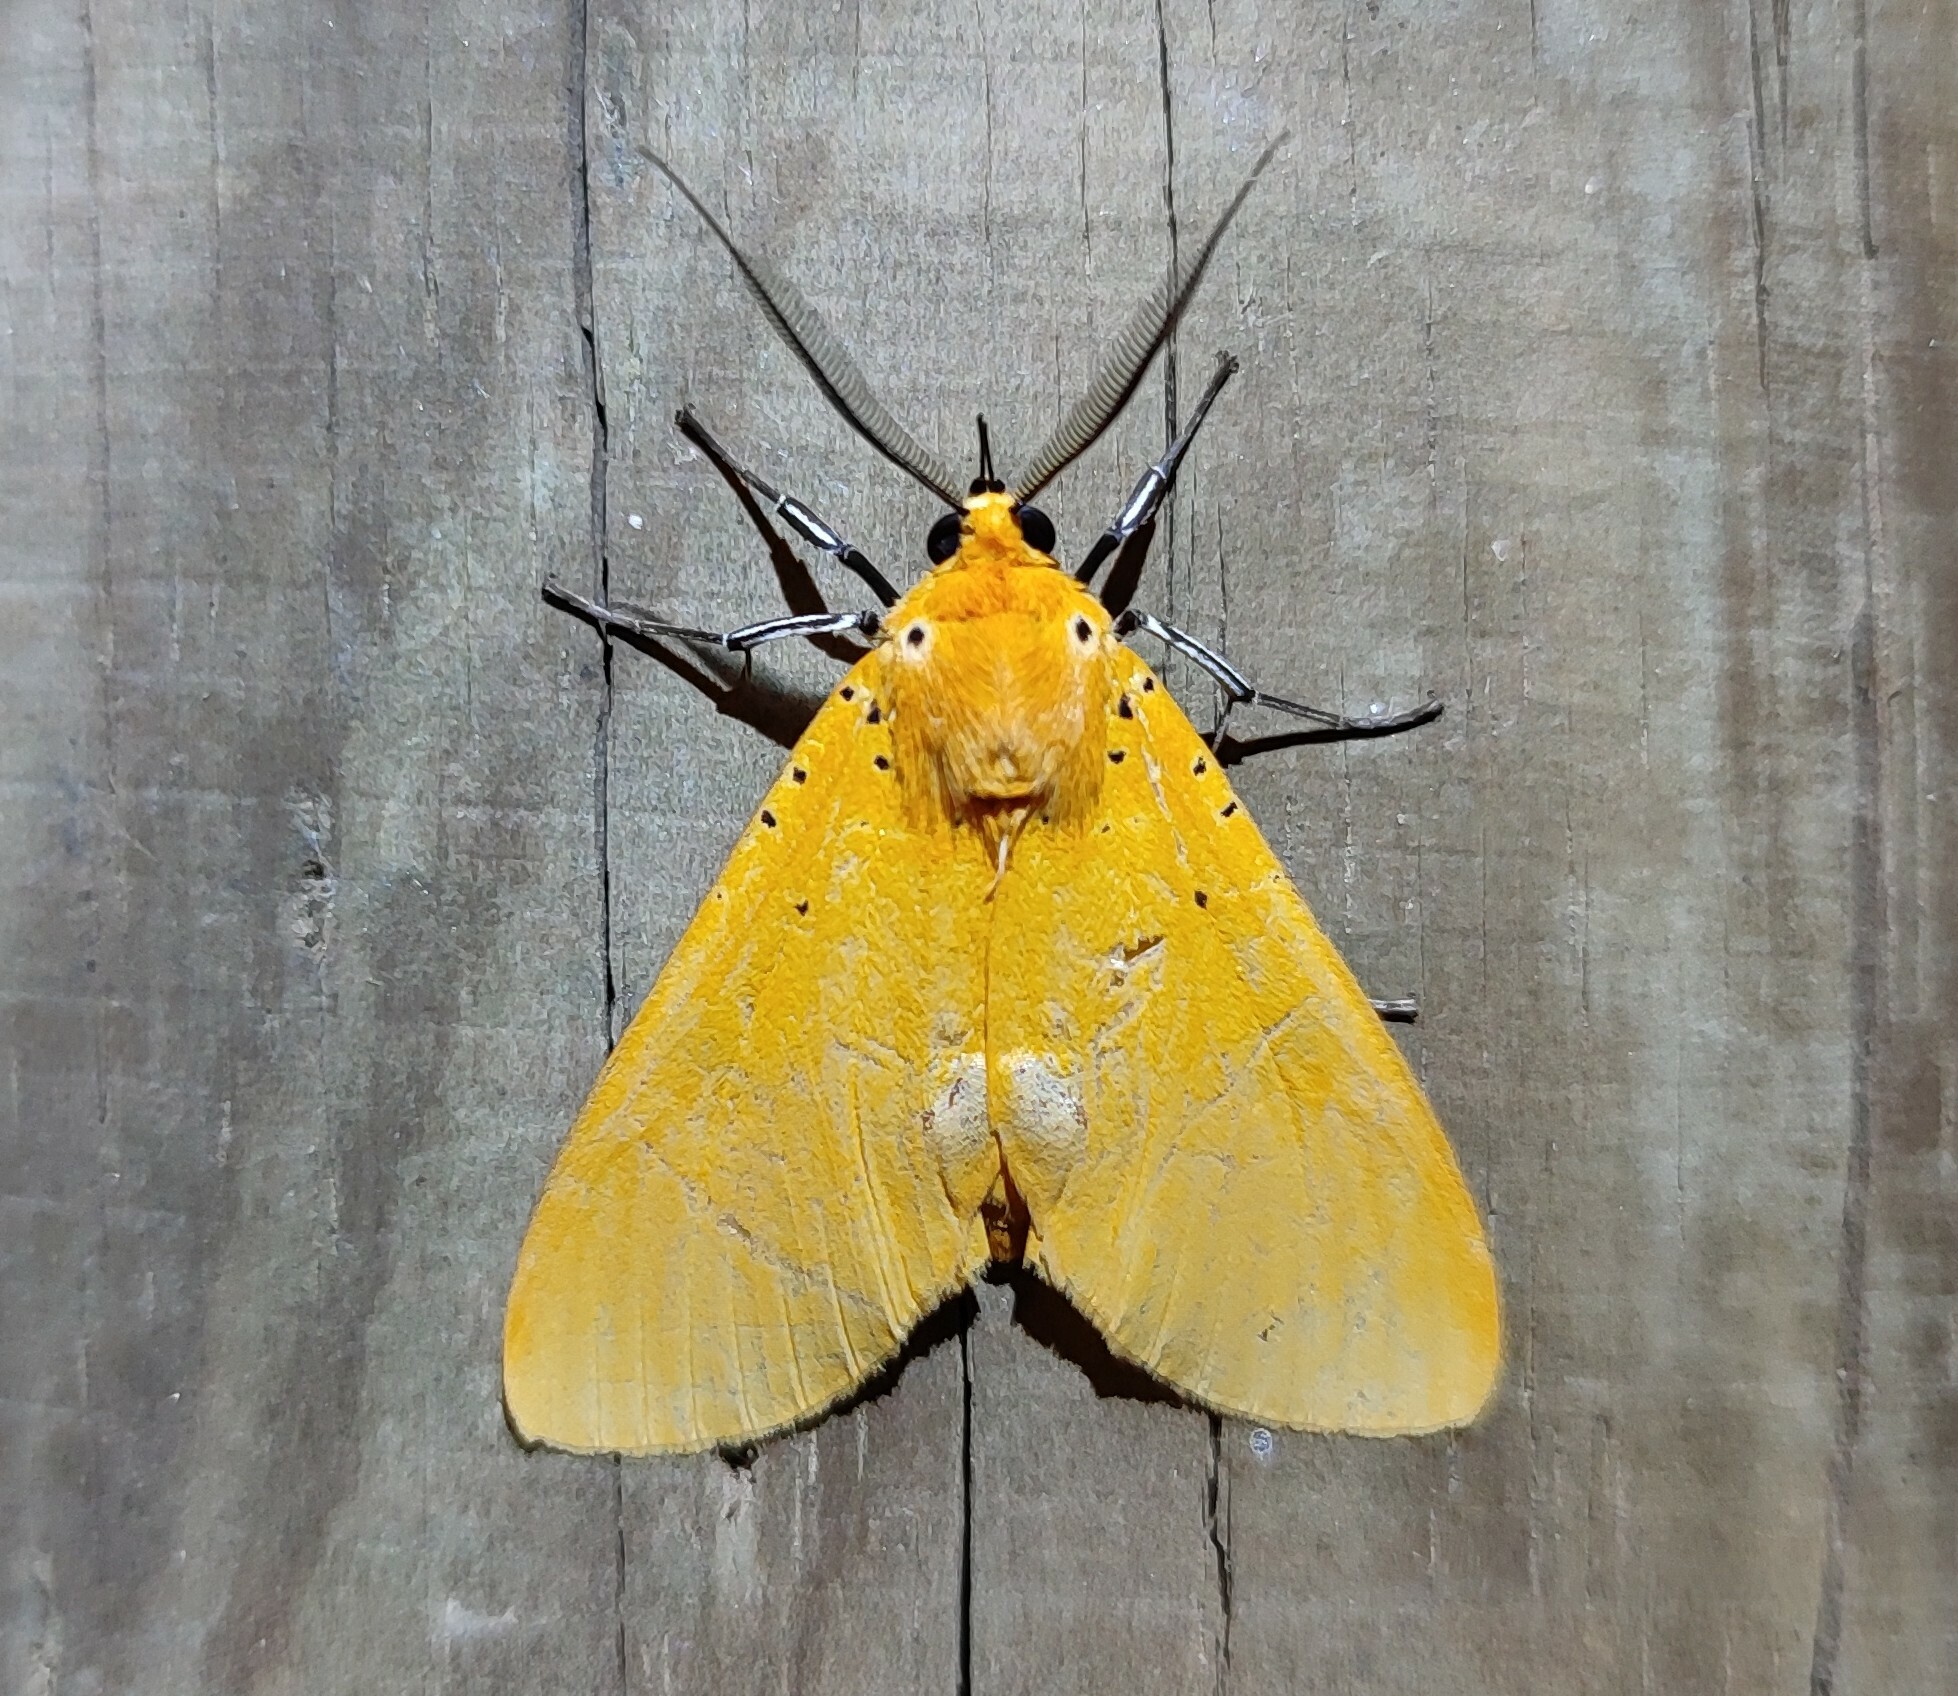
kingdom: Animalia
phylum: Arthropoda
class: Insecta
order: Lepidoptera
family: Erebidae
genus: Asota
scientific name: Asota speciosa
